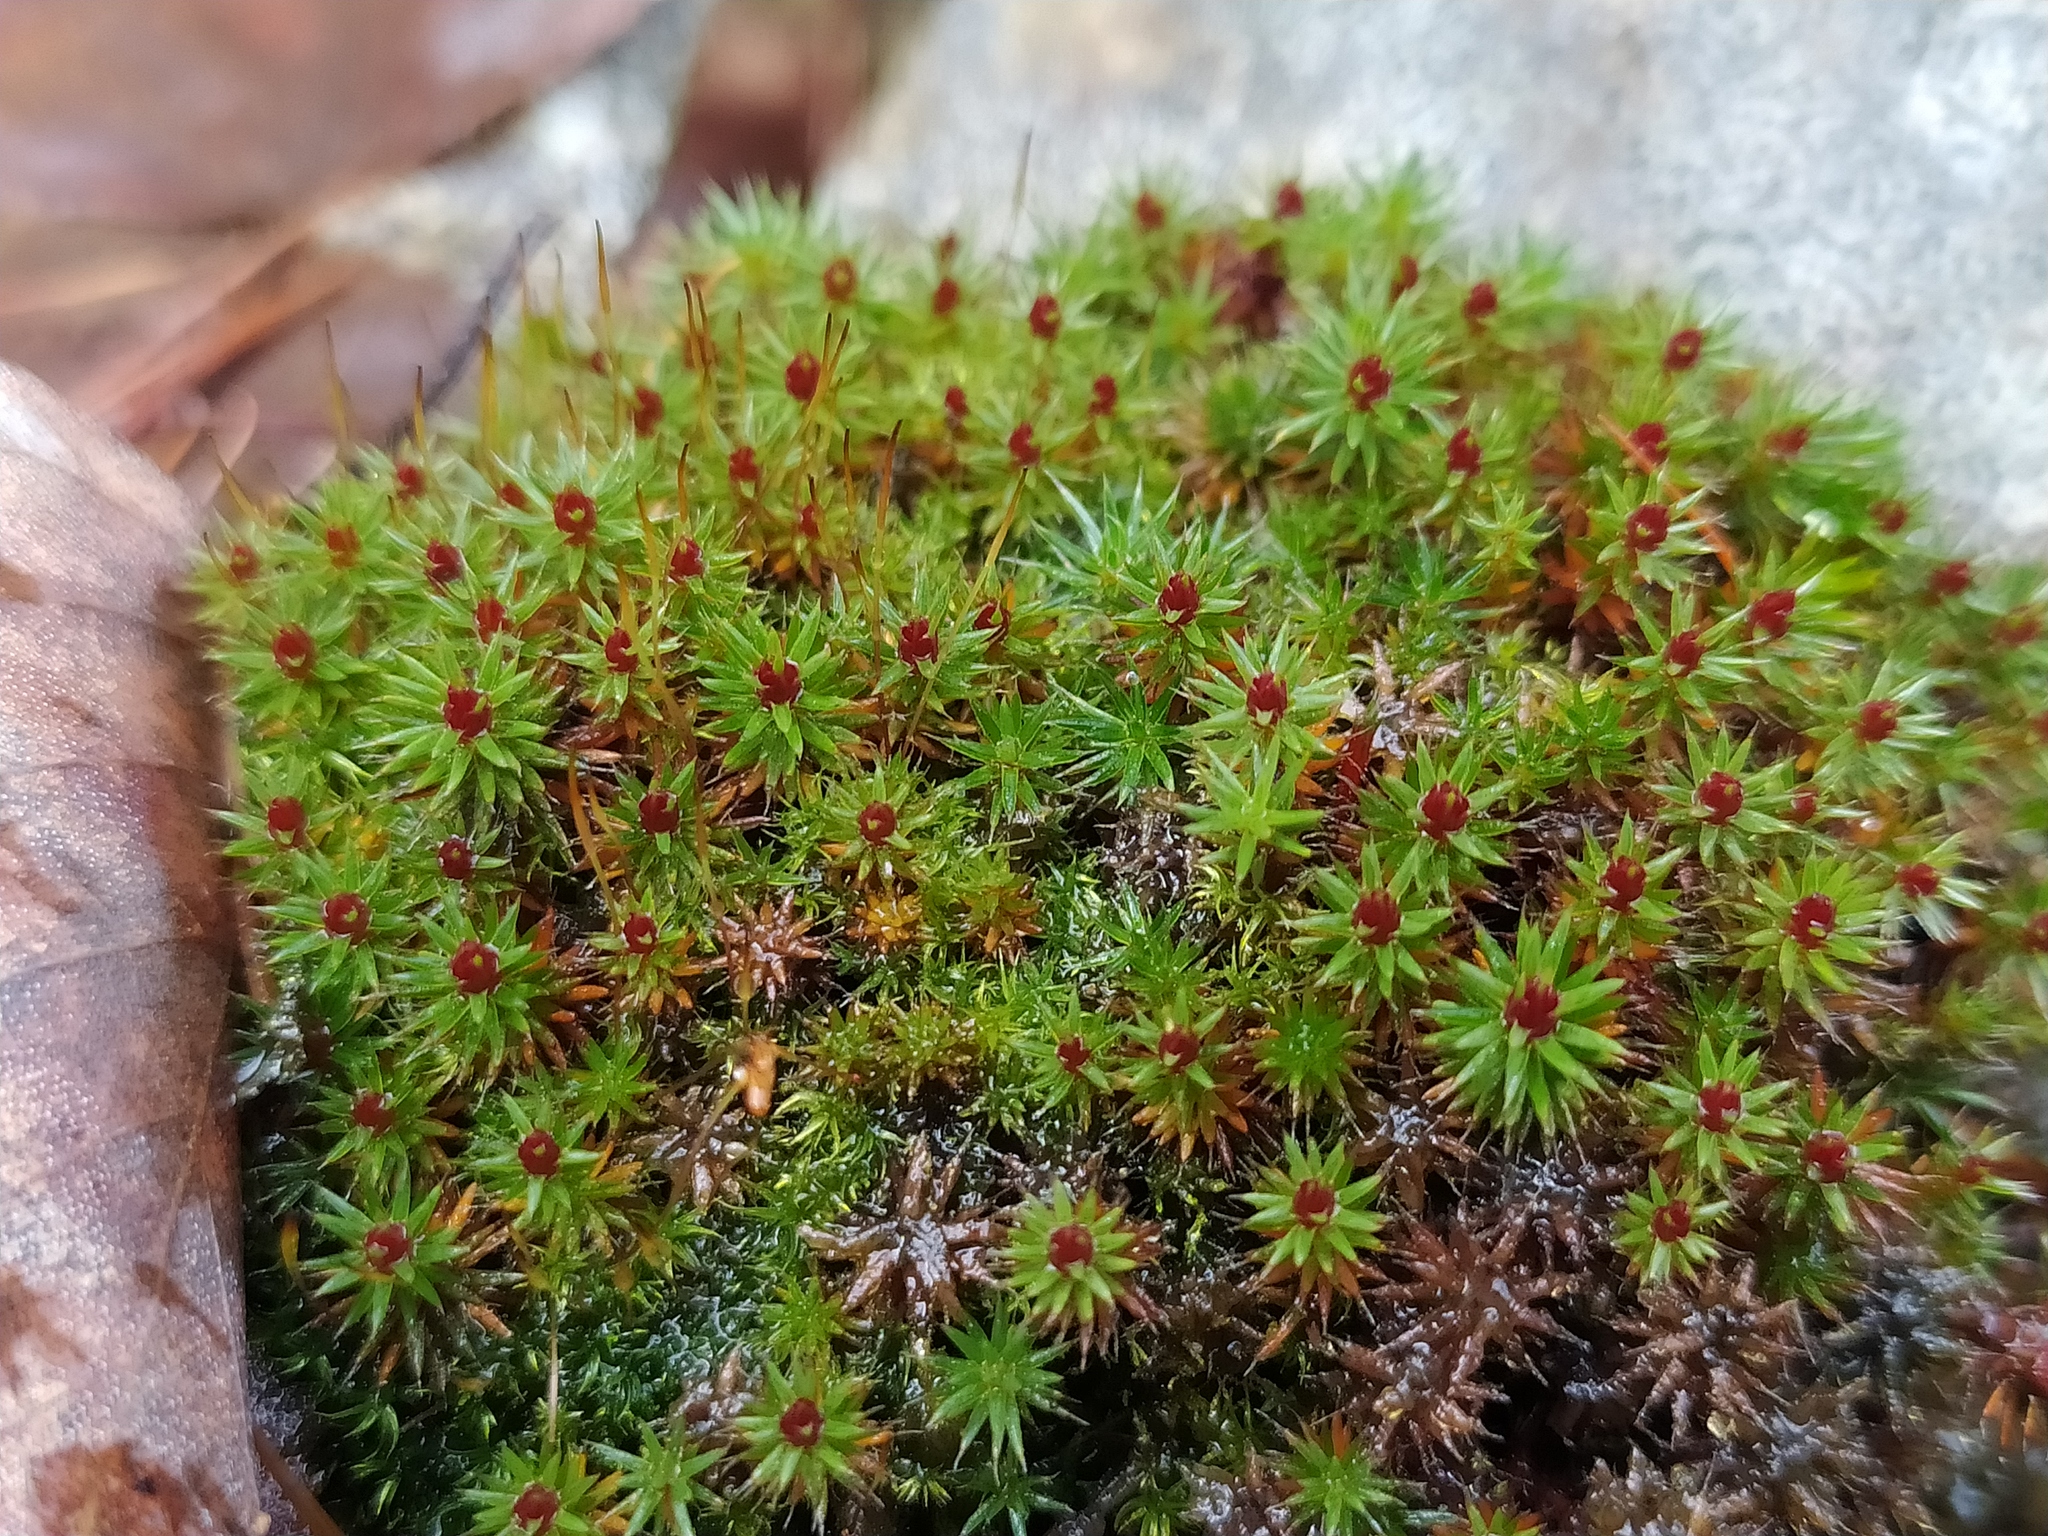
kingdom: Plantae
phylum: Bryophyta
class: Polytrichopsida
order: Polytrichales
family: Polytrichaceae
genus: Polytrichum
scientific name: Polytrichum piliferum
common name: Bristly haircap
